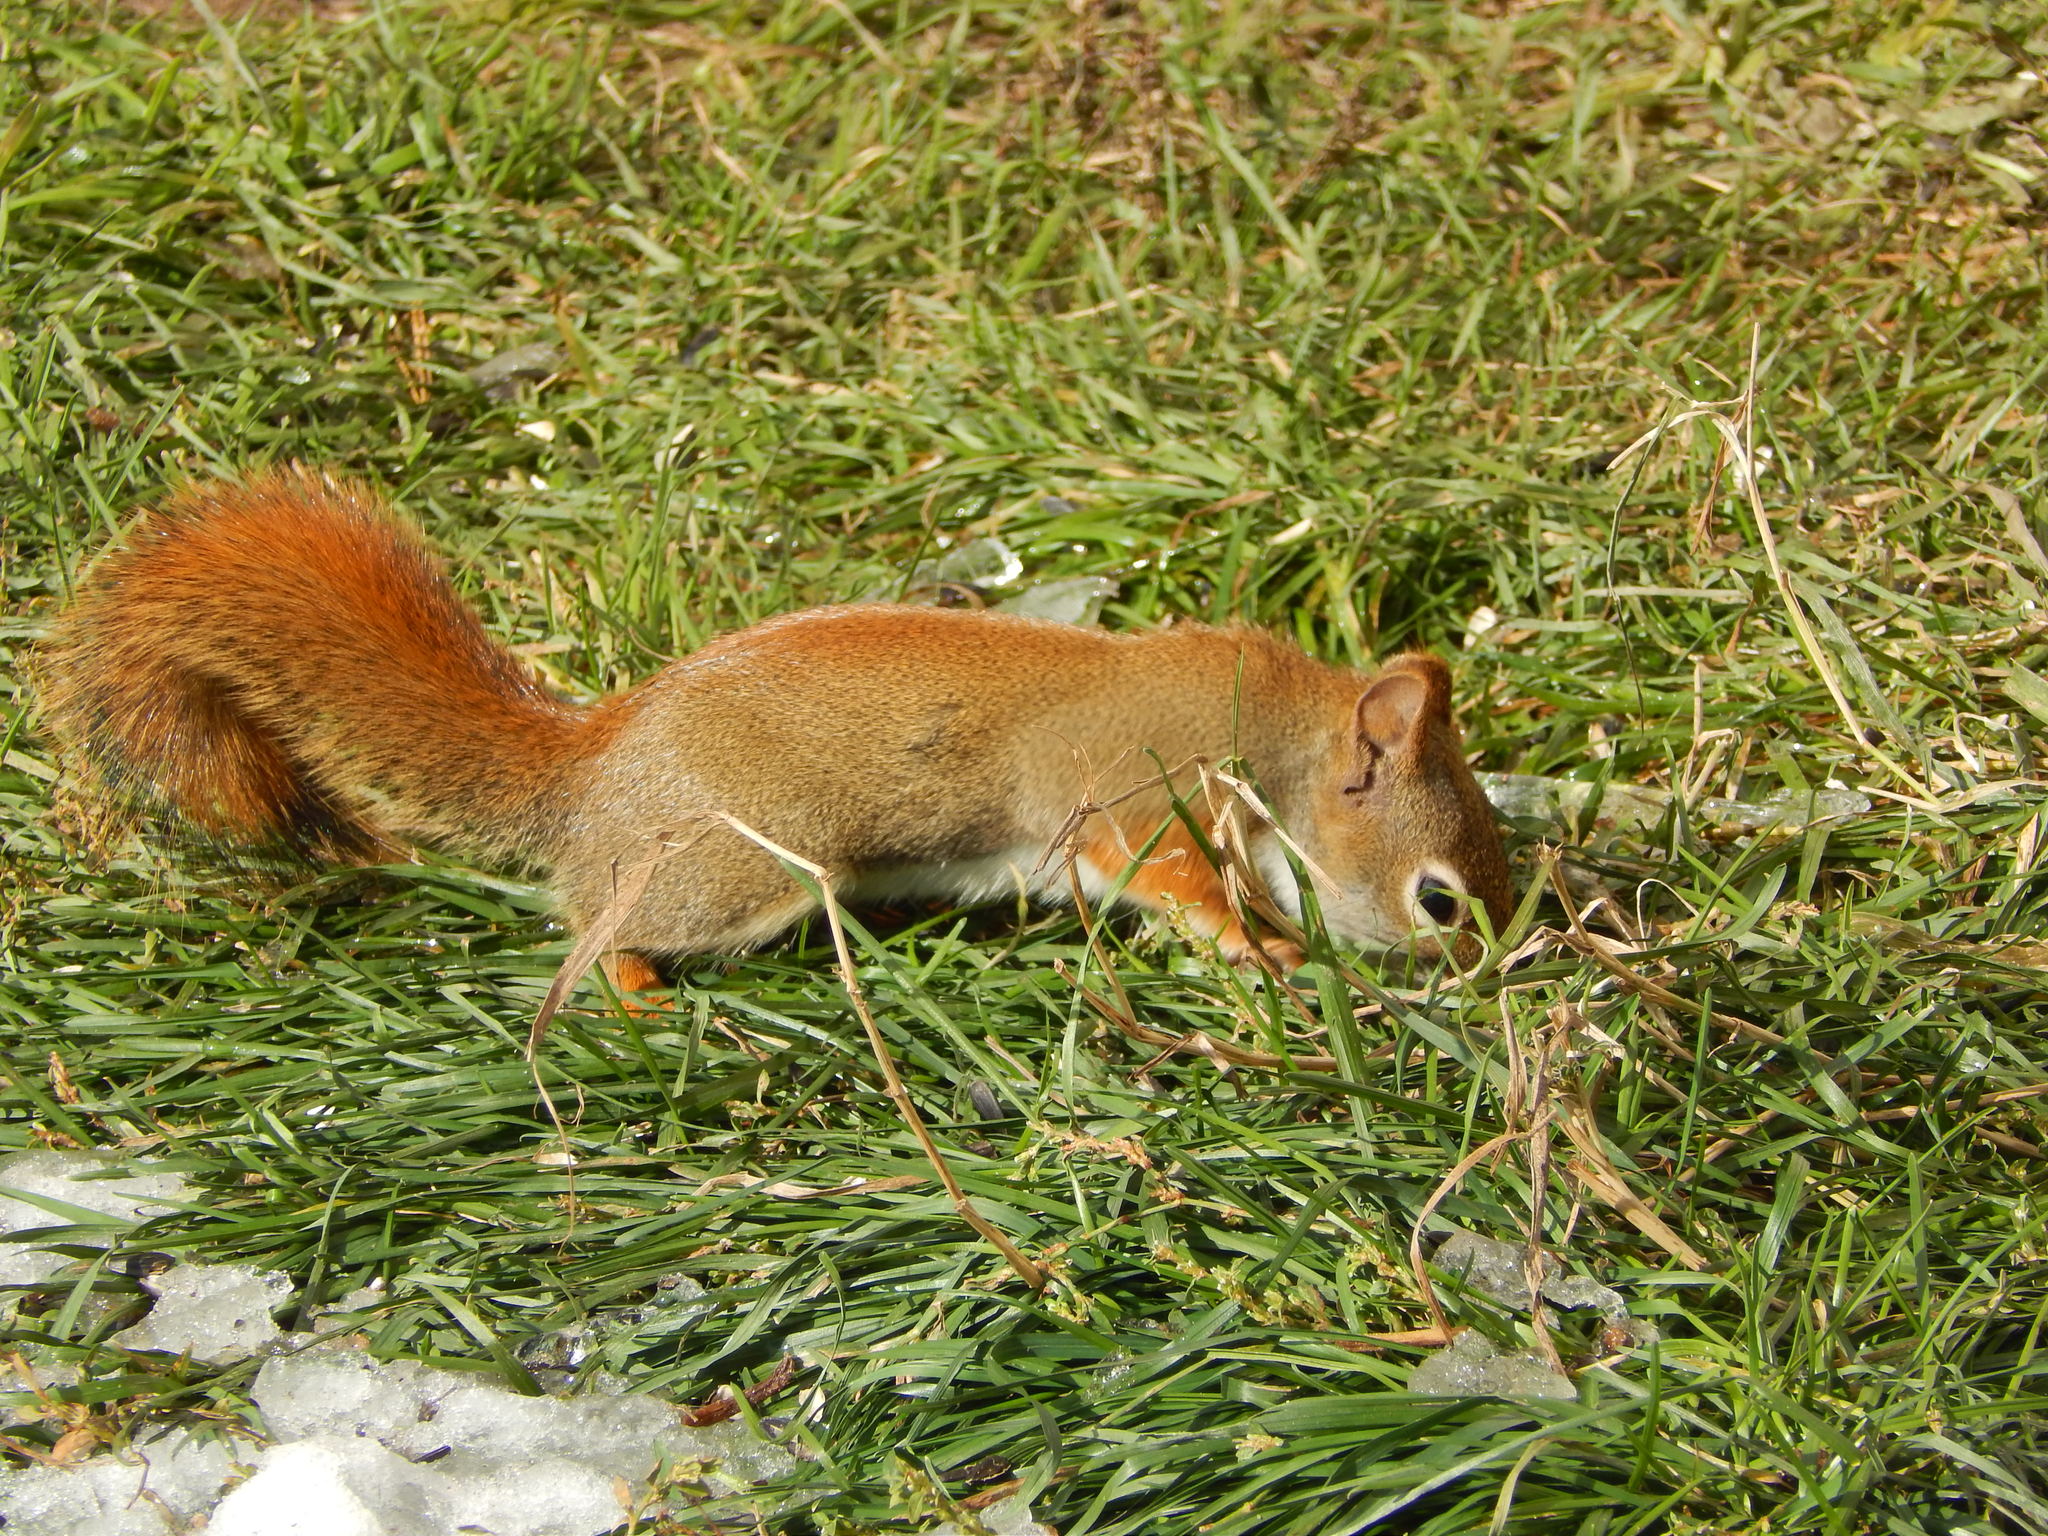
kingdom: Animalia
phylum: Chordata
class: Mammalia
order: Rodentia
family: Sciuridae
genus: Tamiasciurus
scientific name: Tamiasciurus hudsonicus
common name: Red squirrel
